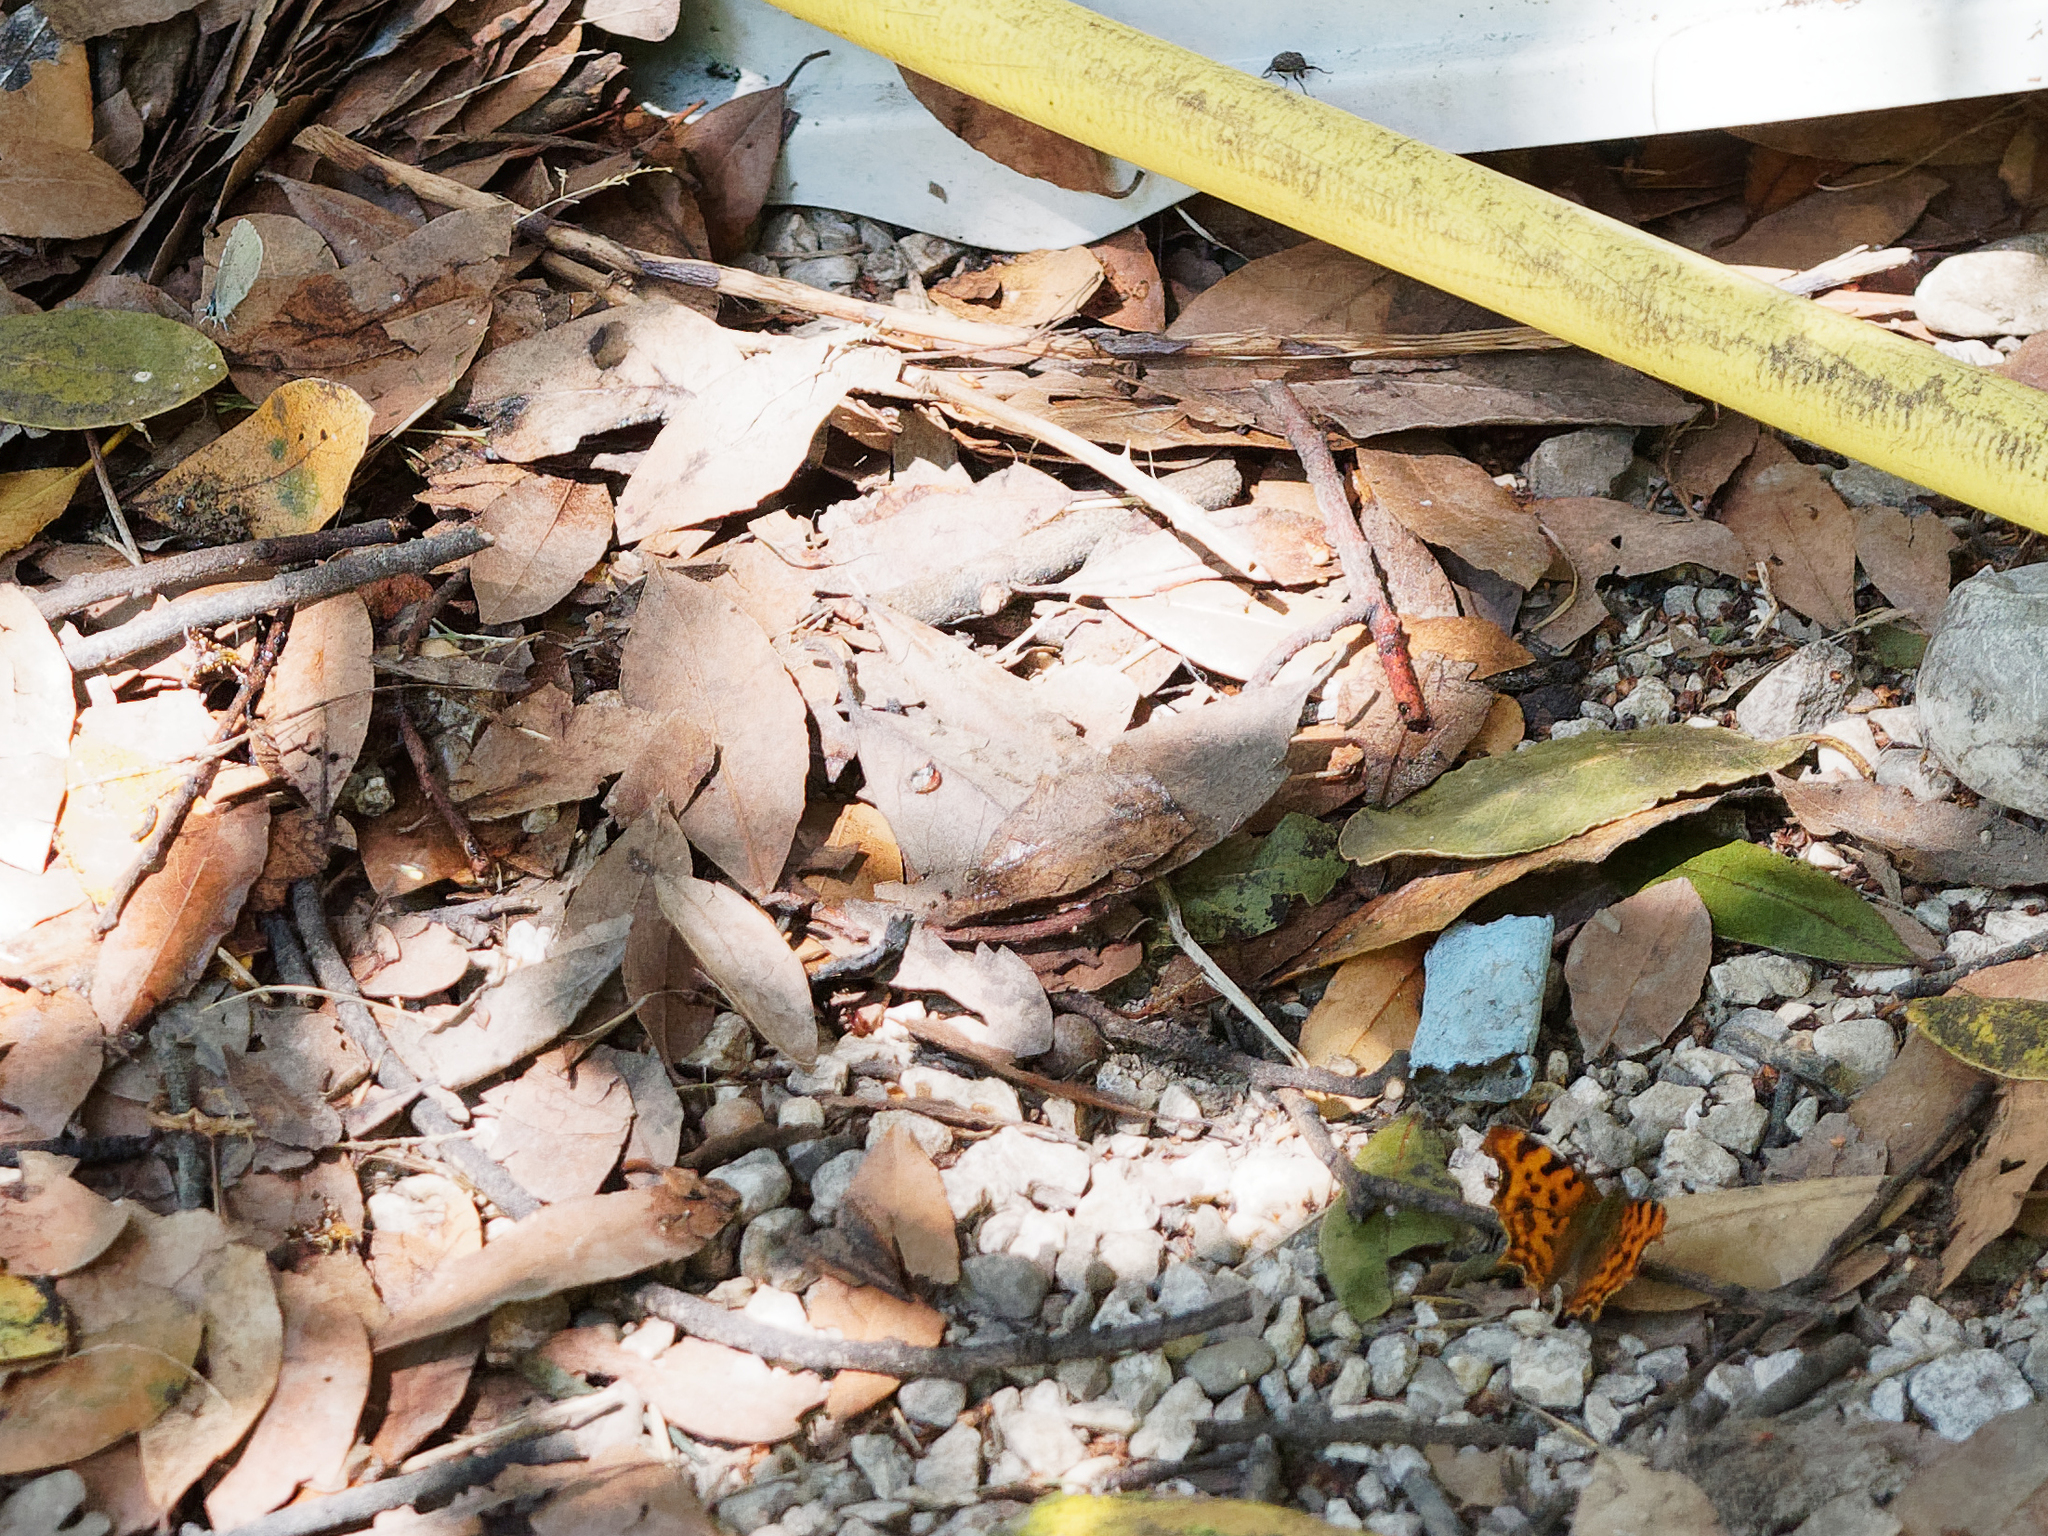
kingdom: Animalia
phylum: Arthropoda
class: Insecta
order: Lepidoptera
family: Nymphalidae
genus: Polygonia
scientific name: Polygonia c-album
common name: Comma
